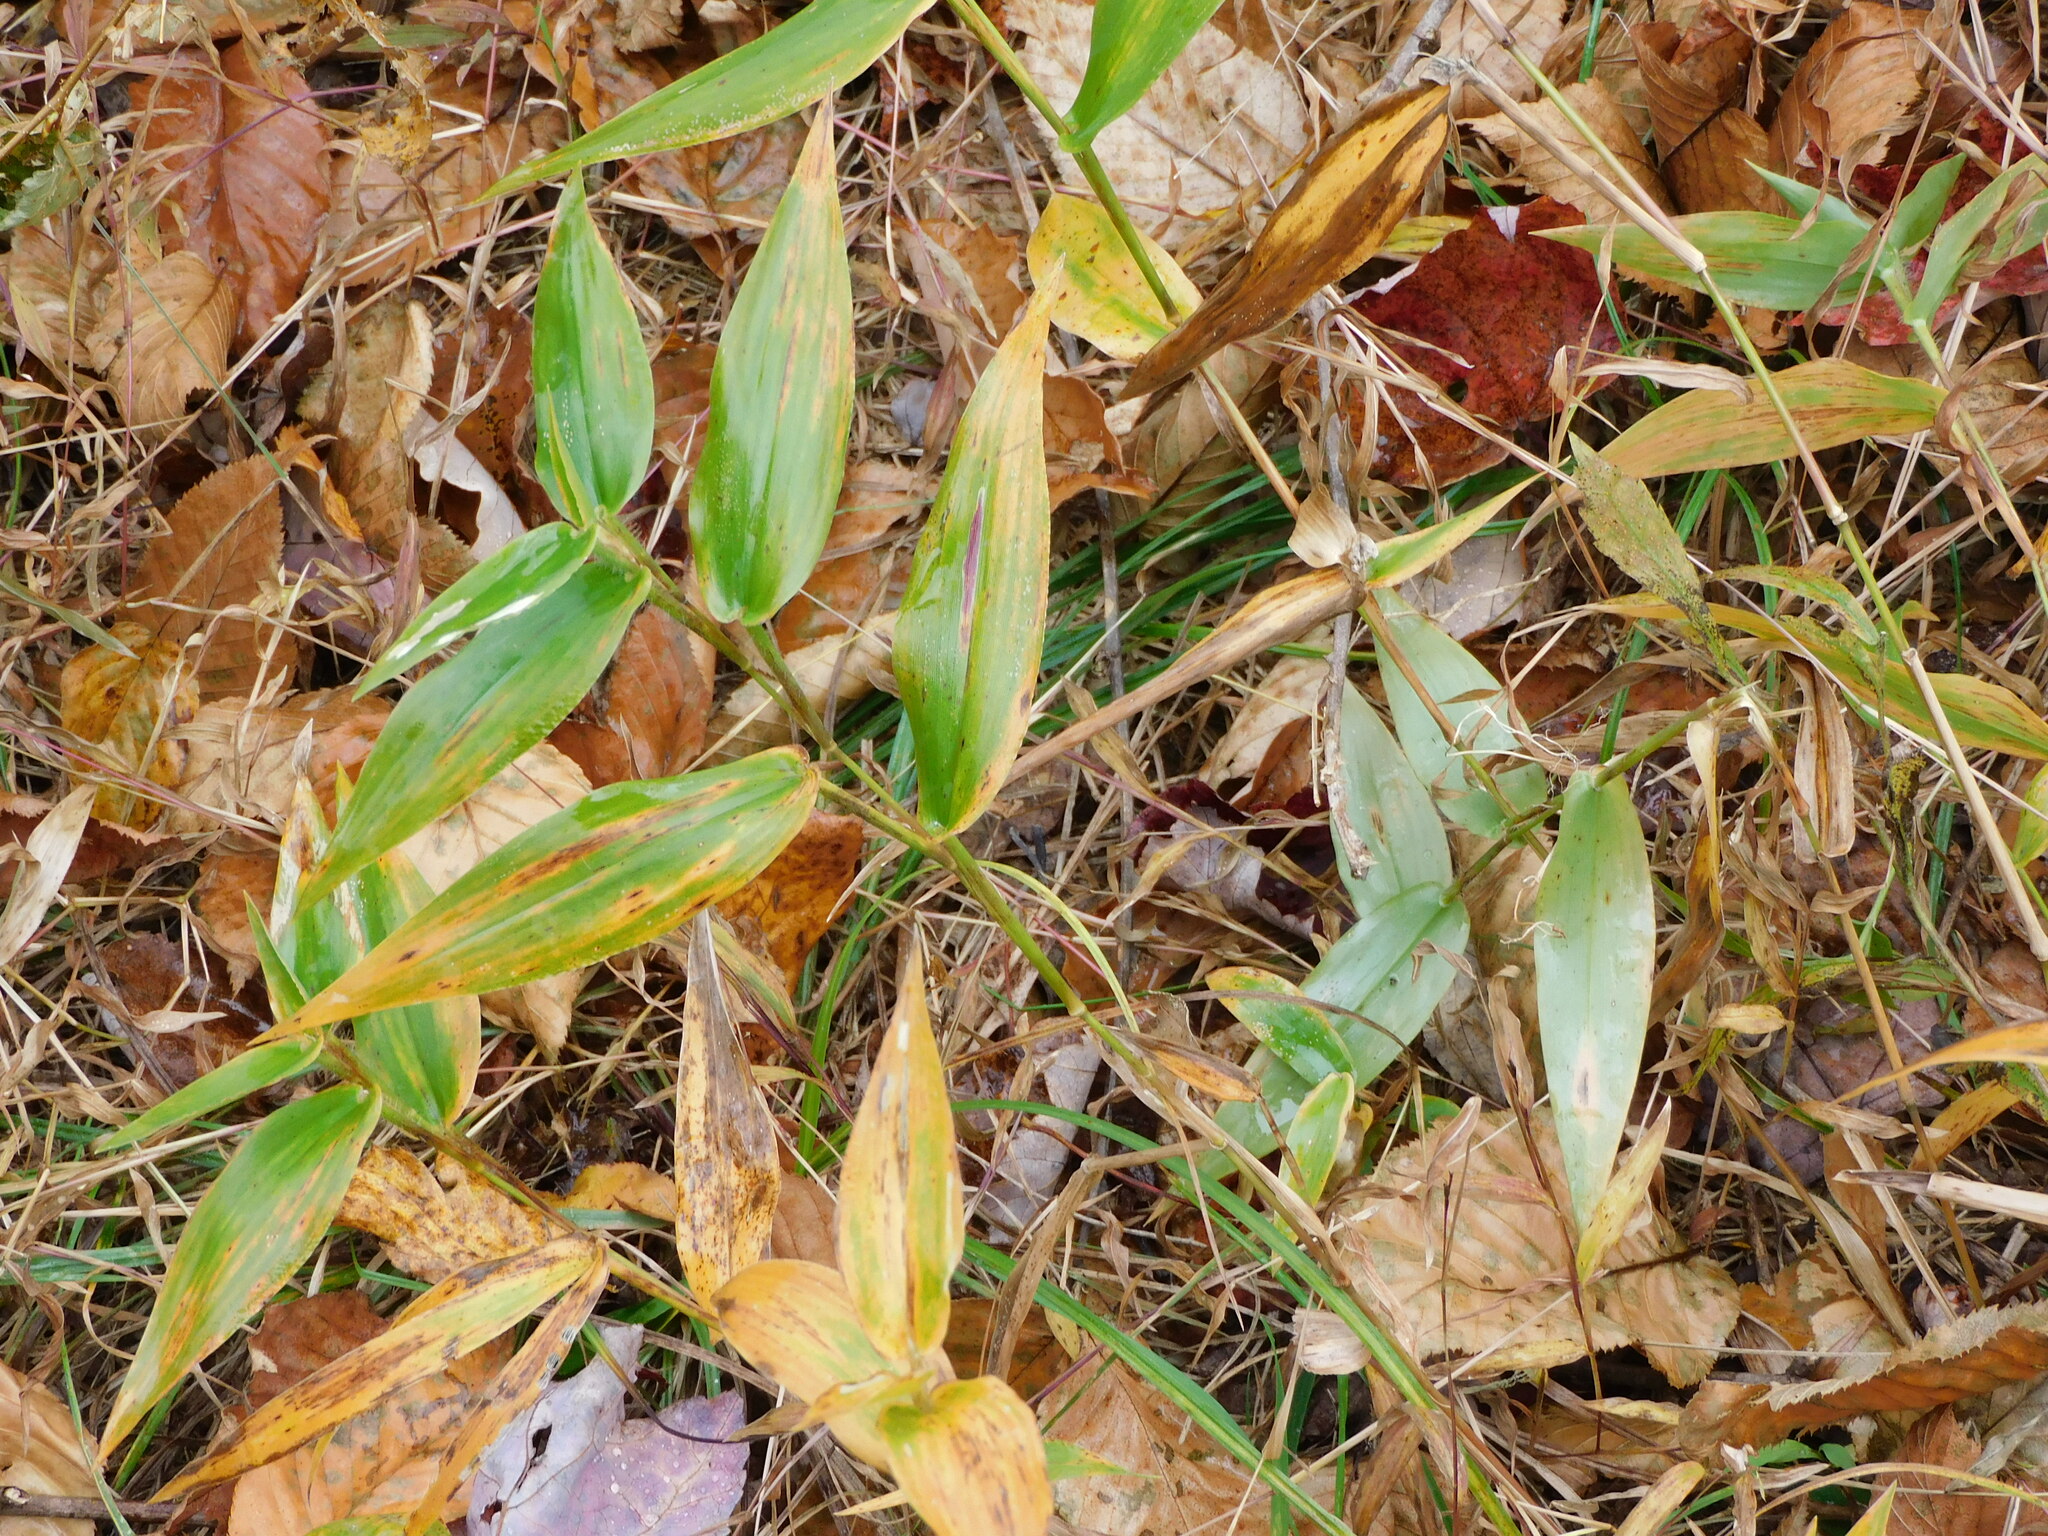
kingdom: Plantae
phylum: Tracheophyta
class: Liliopsida
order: Poales
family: Poaceae
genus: Dichanthelium
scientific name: Dichanthelium clandestinum
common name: Deer-tongue grass
